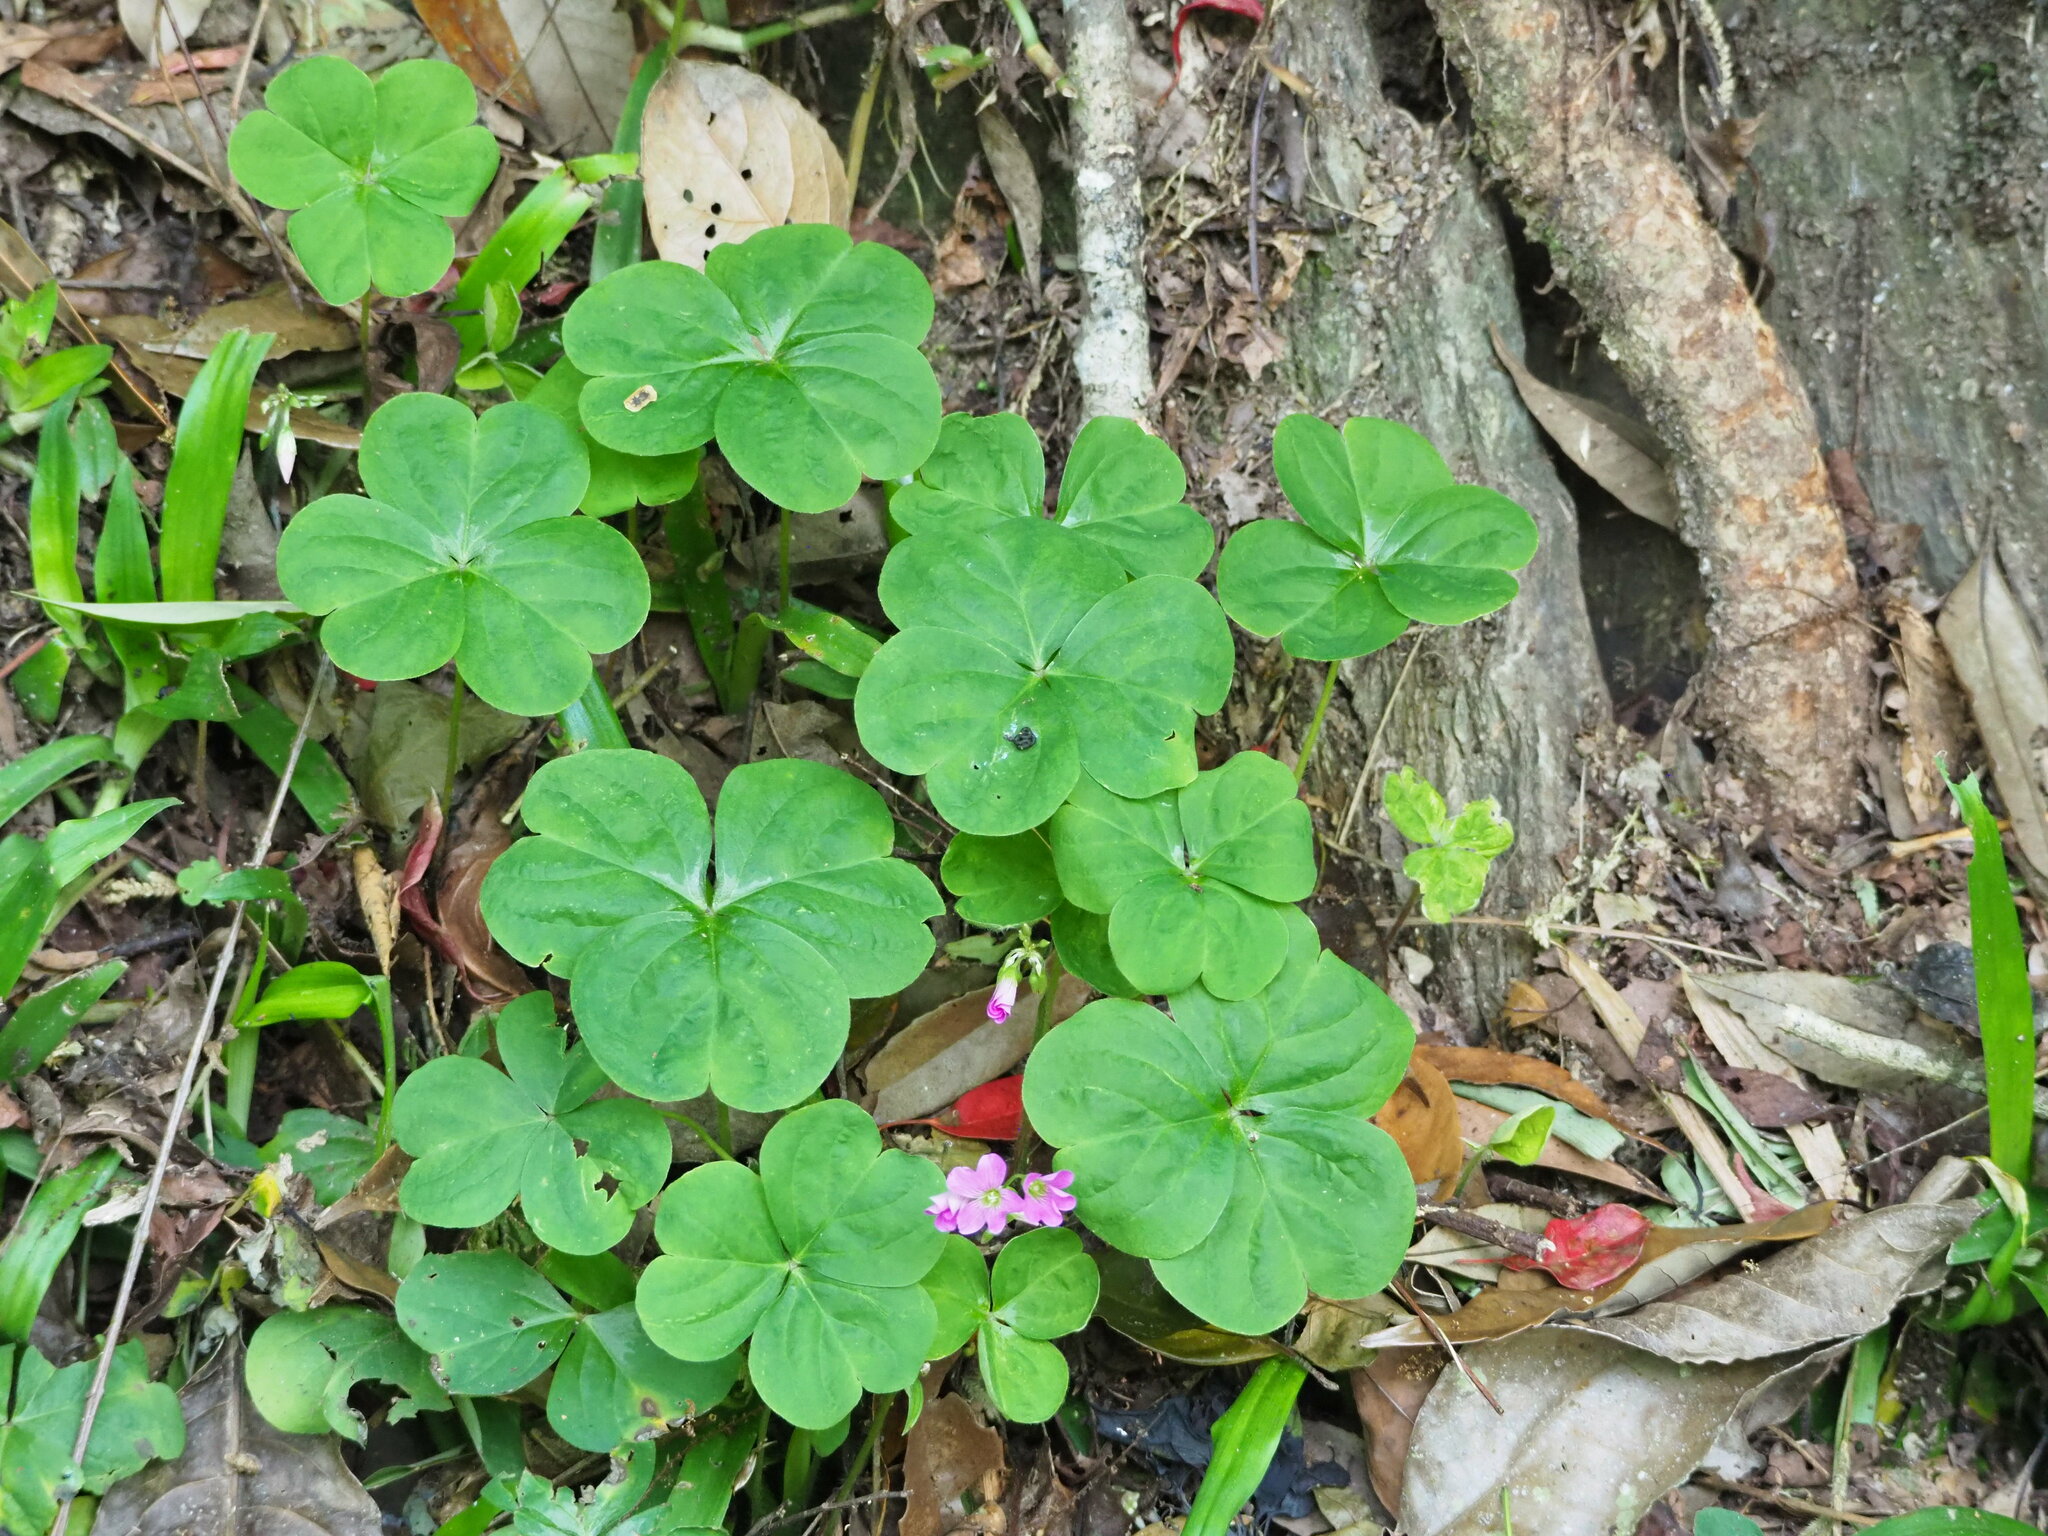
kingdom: Plantae
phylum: Tracheophyta
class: Magnoliopsida
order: Oxalidales
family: Oxalidaceae
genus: Oxalis
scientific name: Oxalis debilis
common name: Large-flowered pink-sorrel
